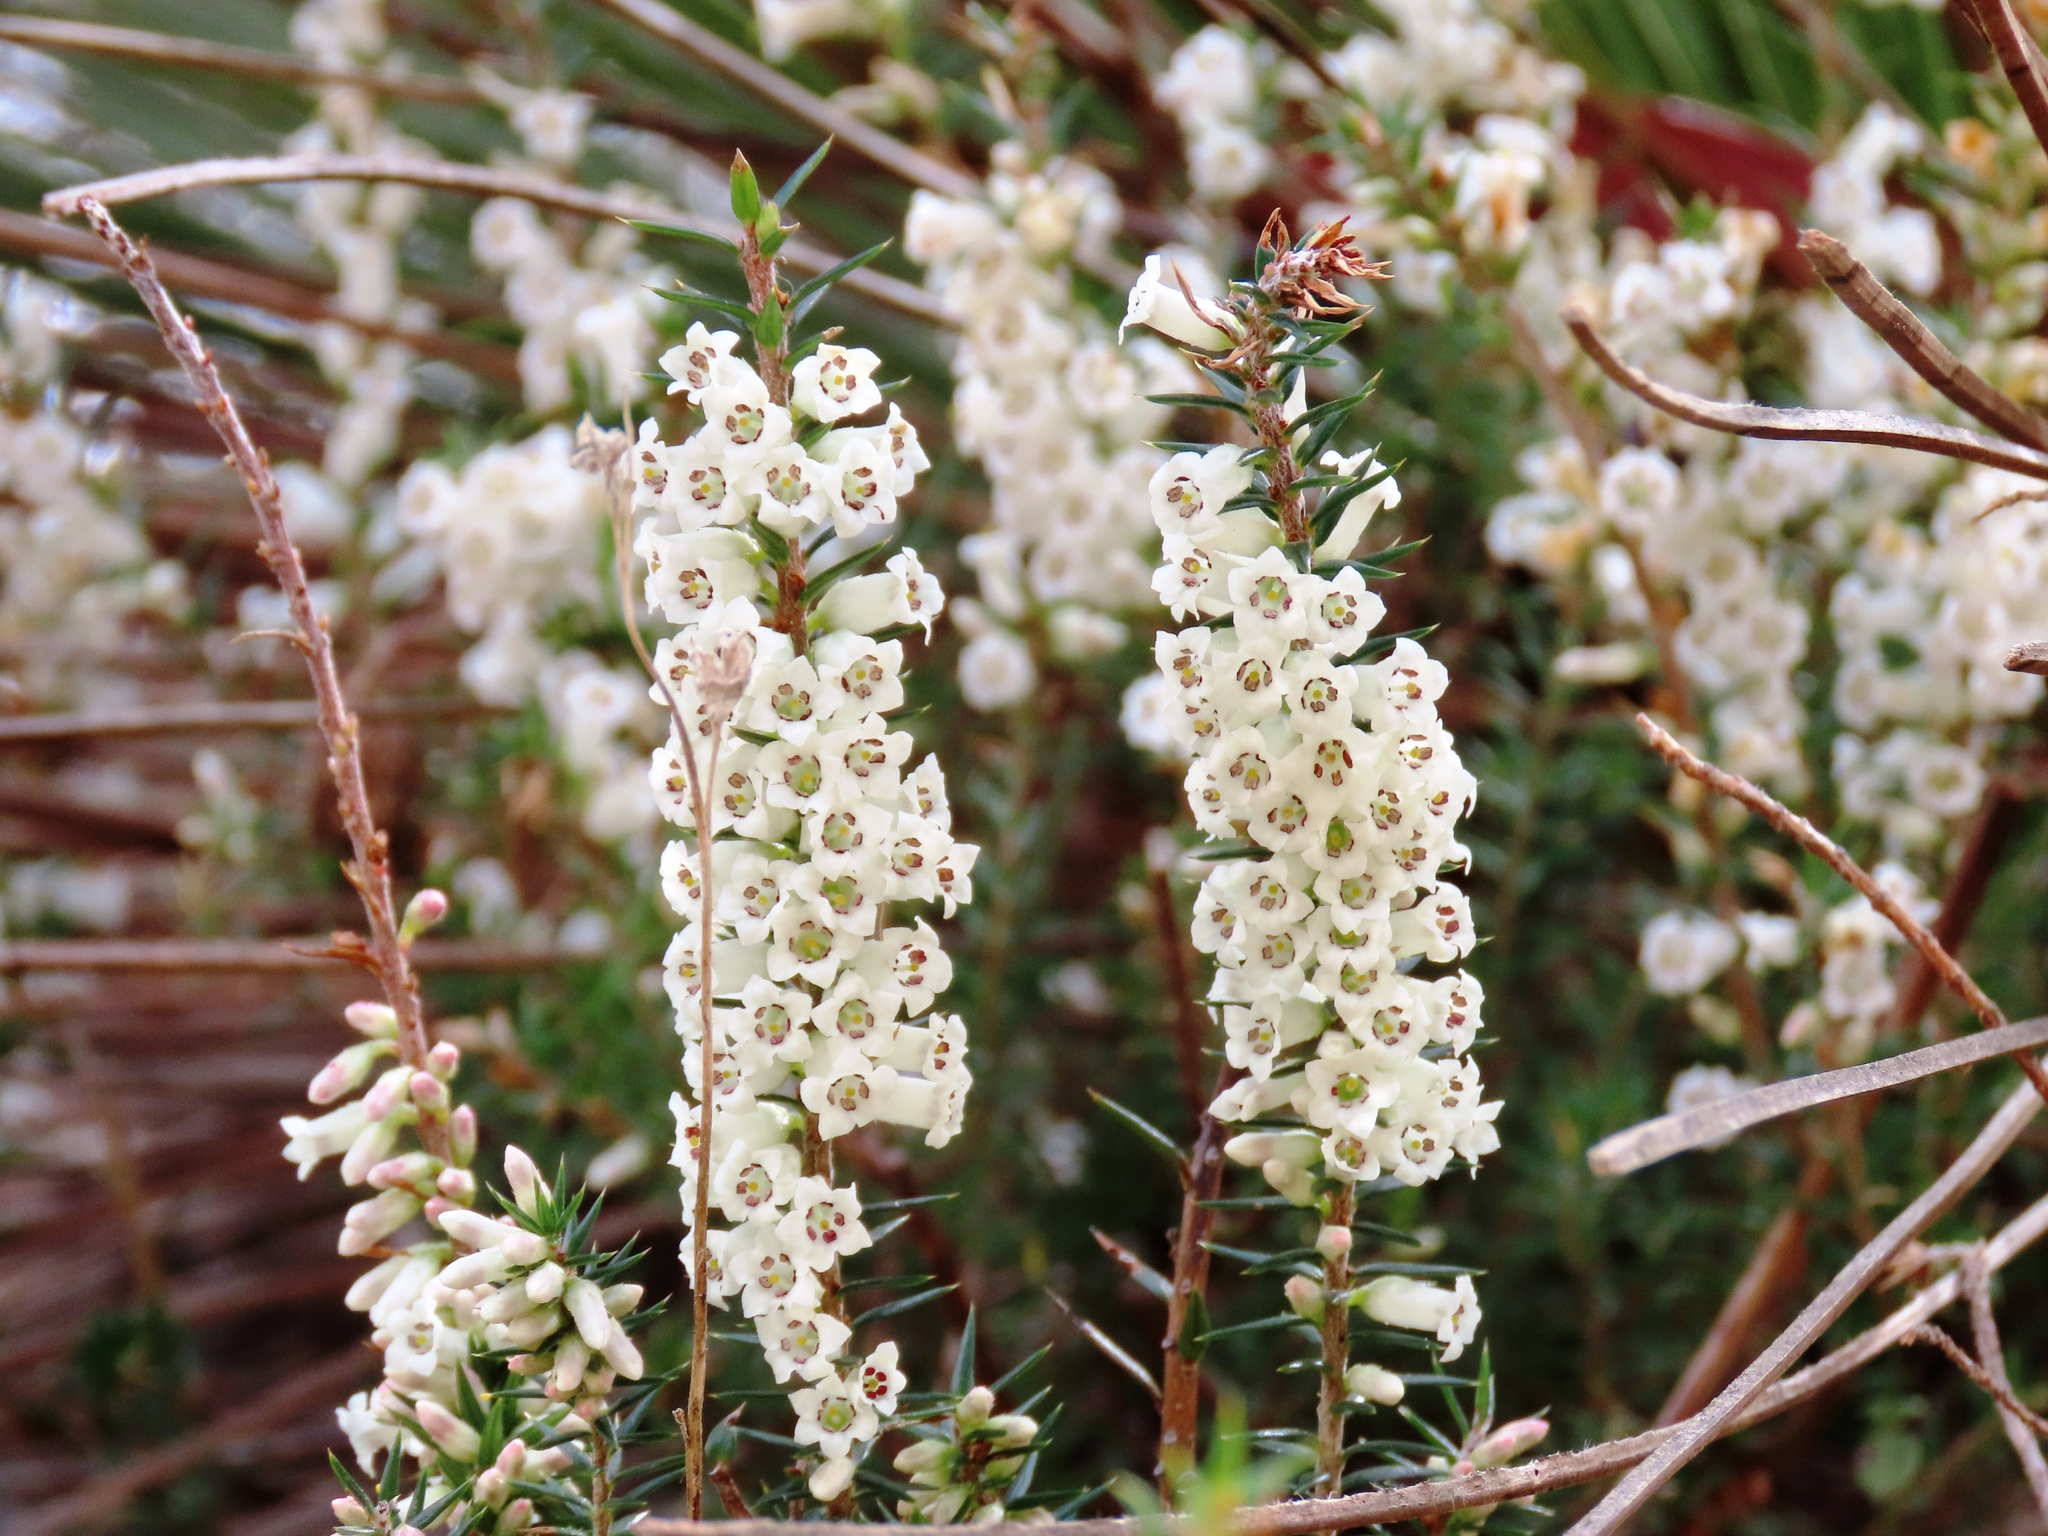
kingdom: Plantae
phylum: Tracheophyta
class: Magnoliopsida
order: Ericales
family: Ericaceae
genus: Epacris
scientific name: Epacris impressa
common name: Common-heath
